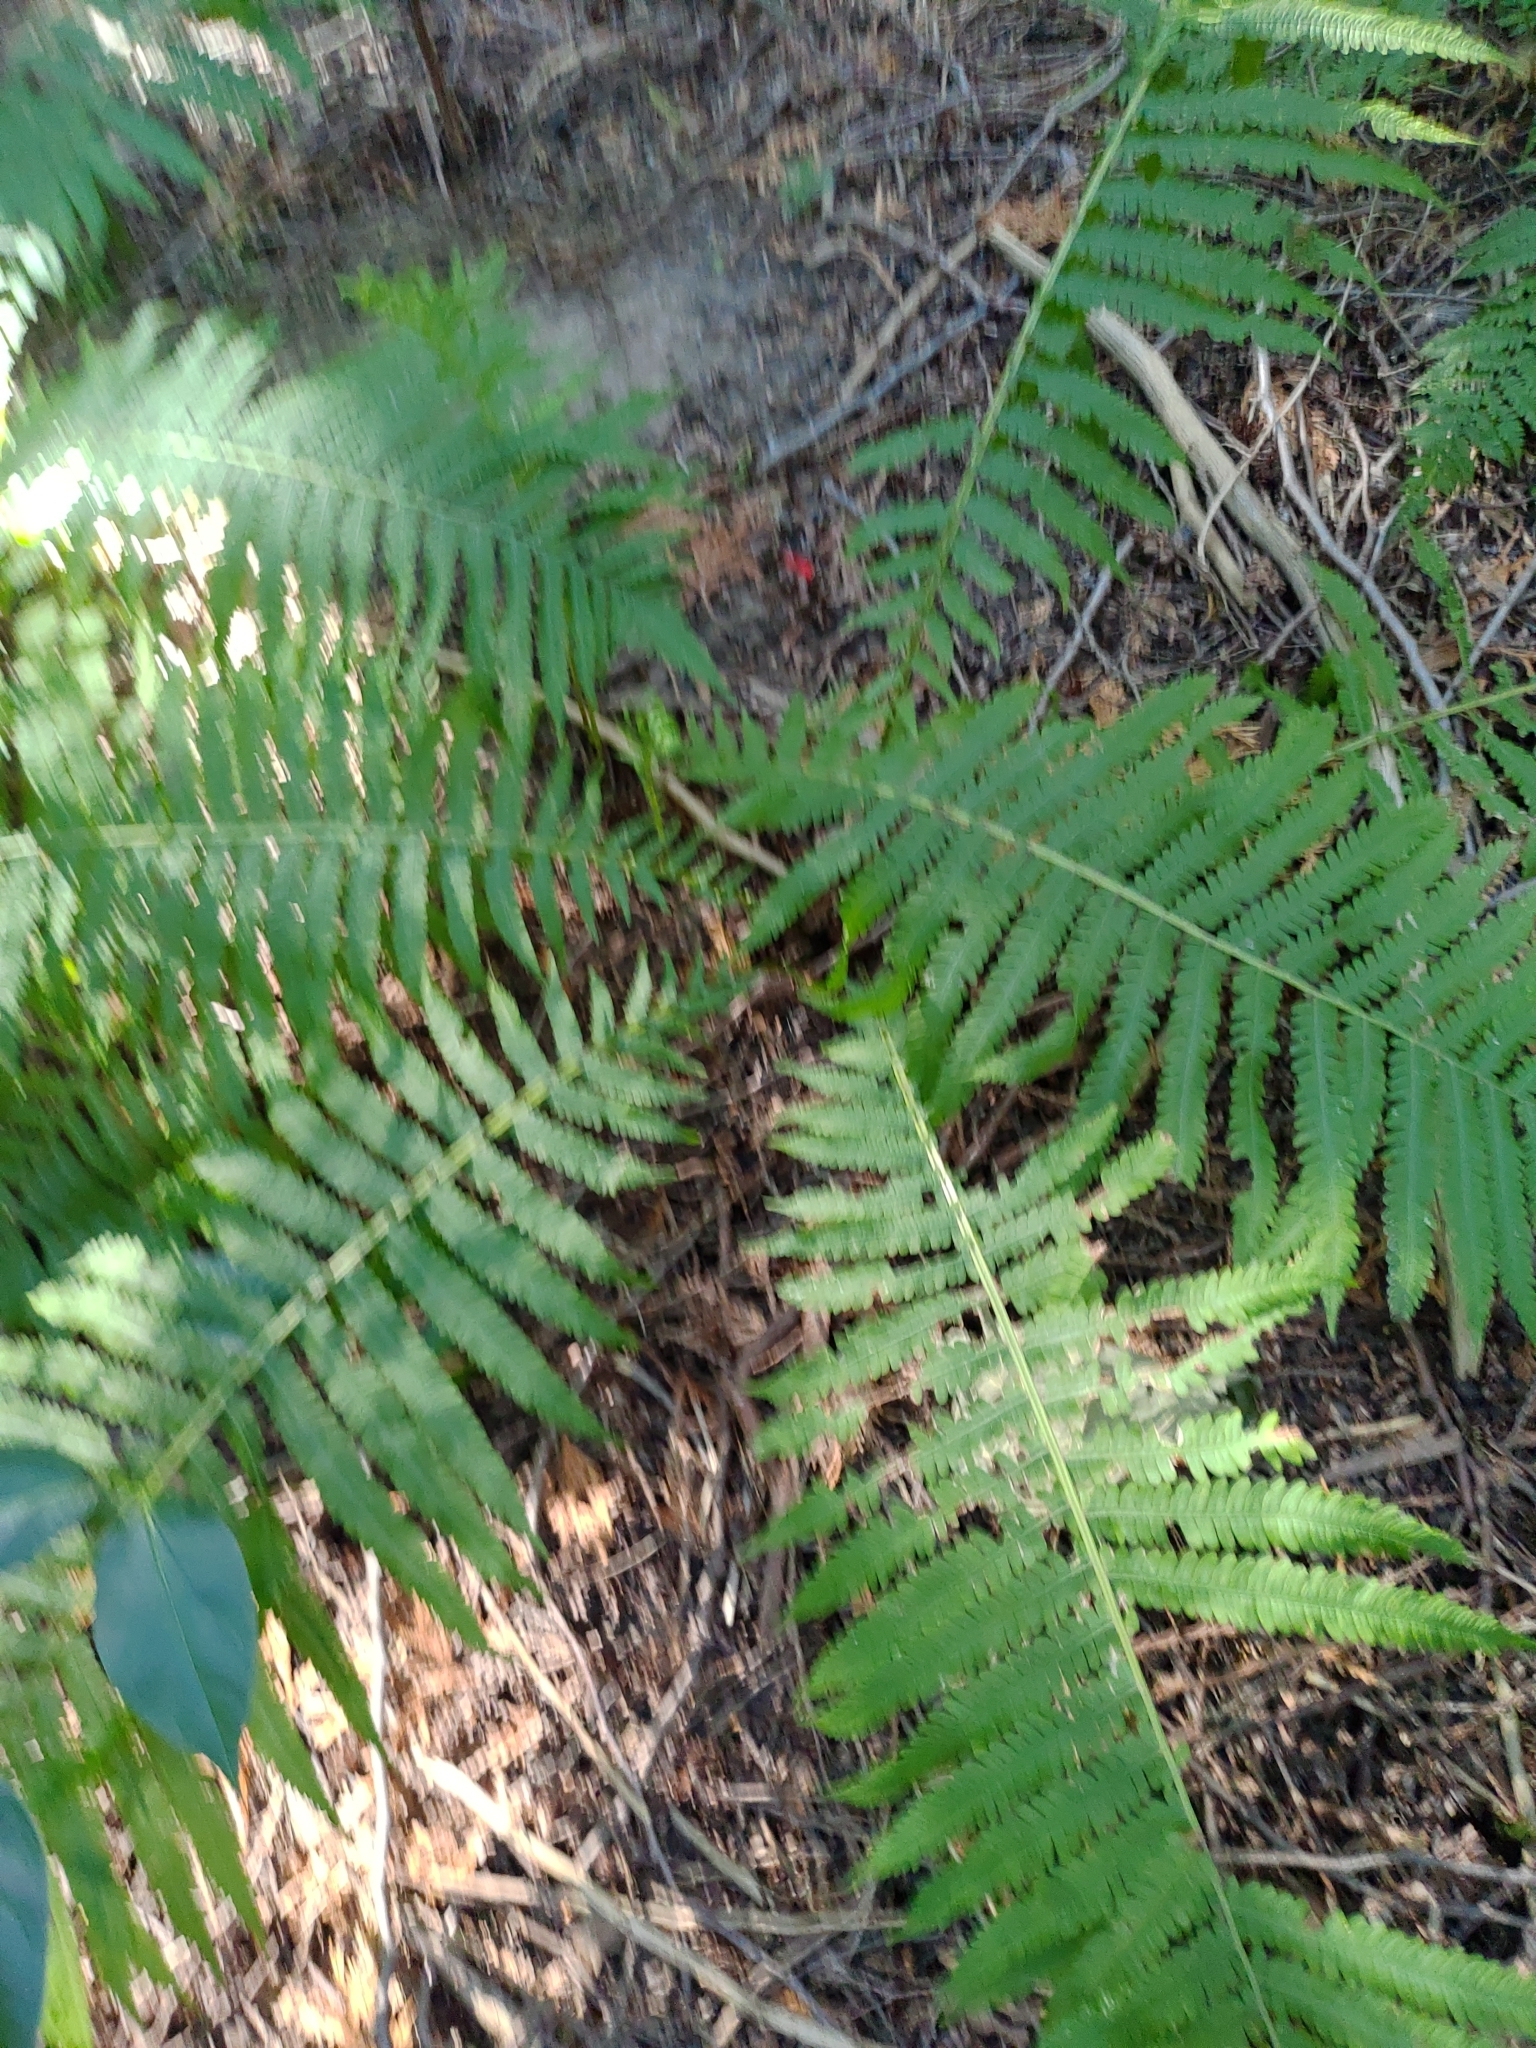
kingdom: Plantae
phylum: Tracheophyta
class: Polypodiopsida
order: Polypodiales
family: Onocleaceae
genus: Matteuccia
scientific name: Matteuccia struthiopteris
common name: Ostrich fern
